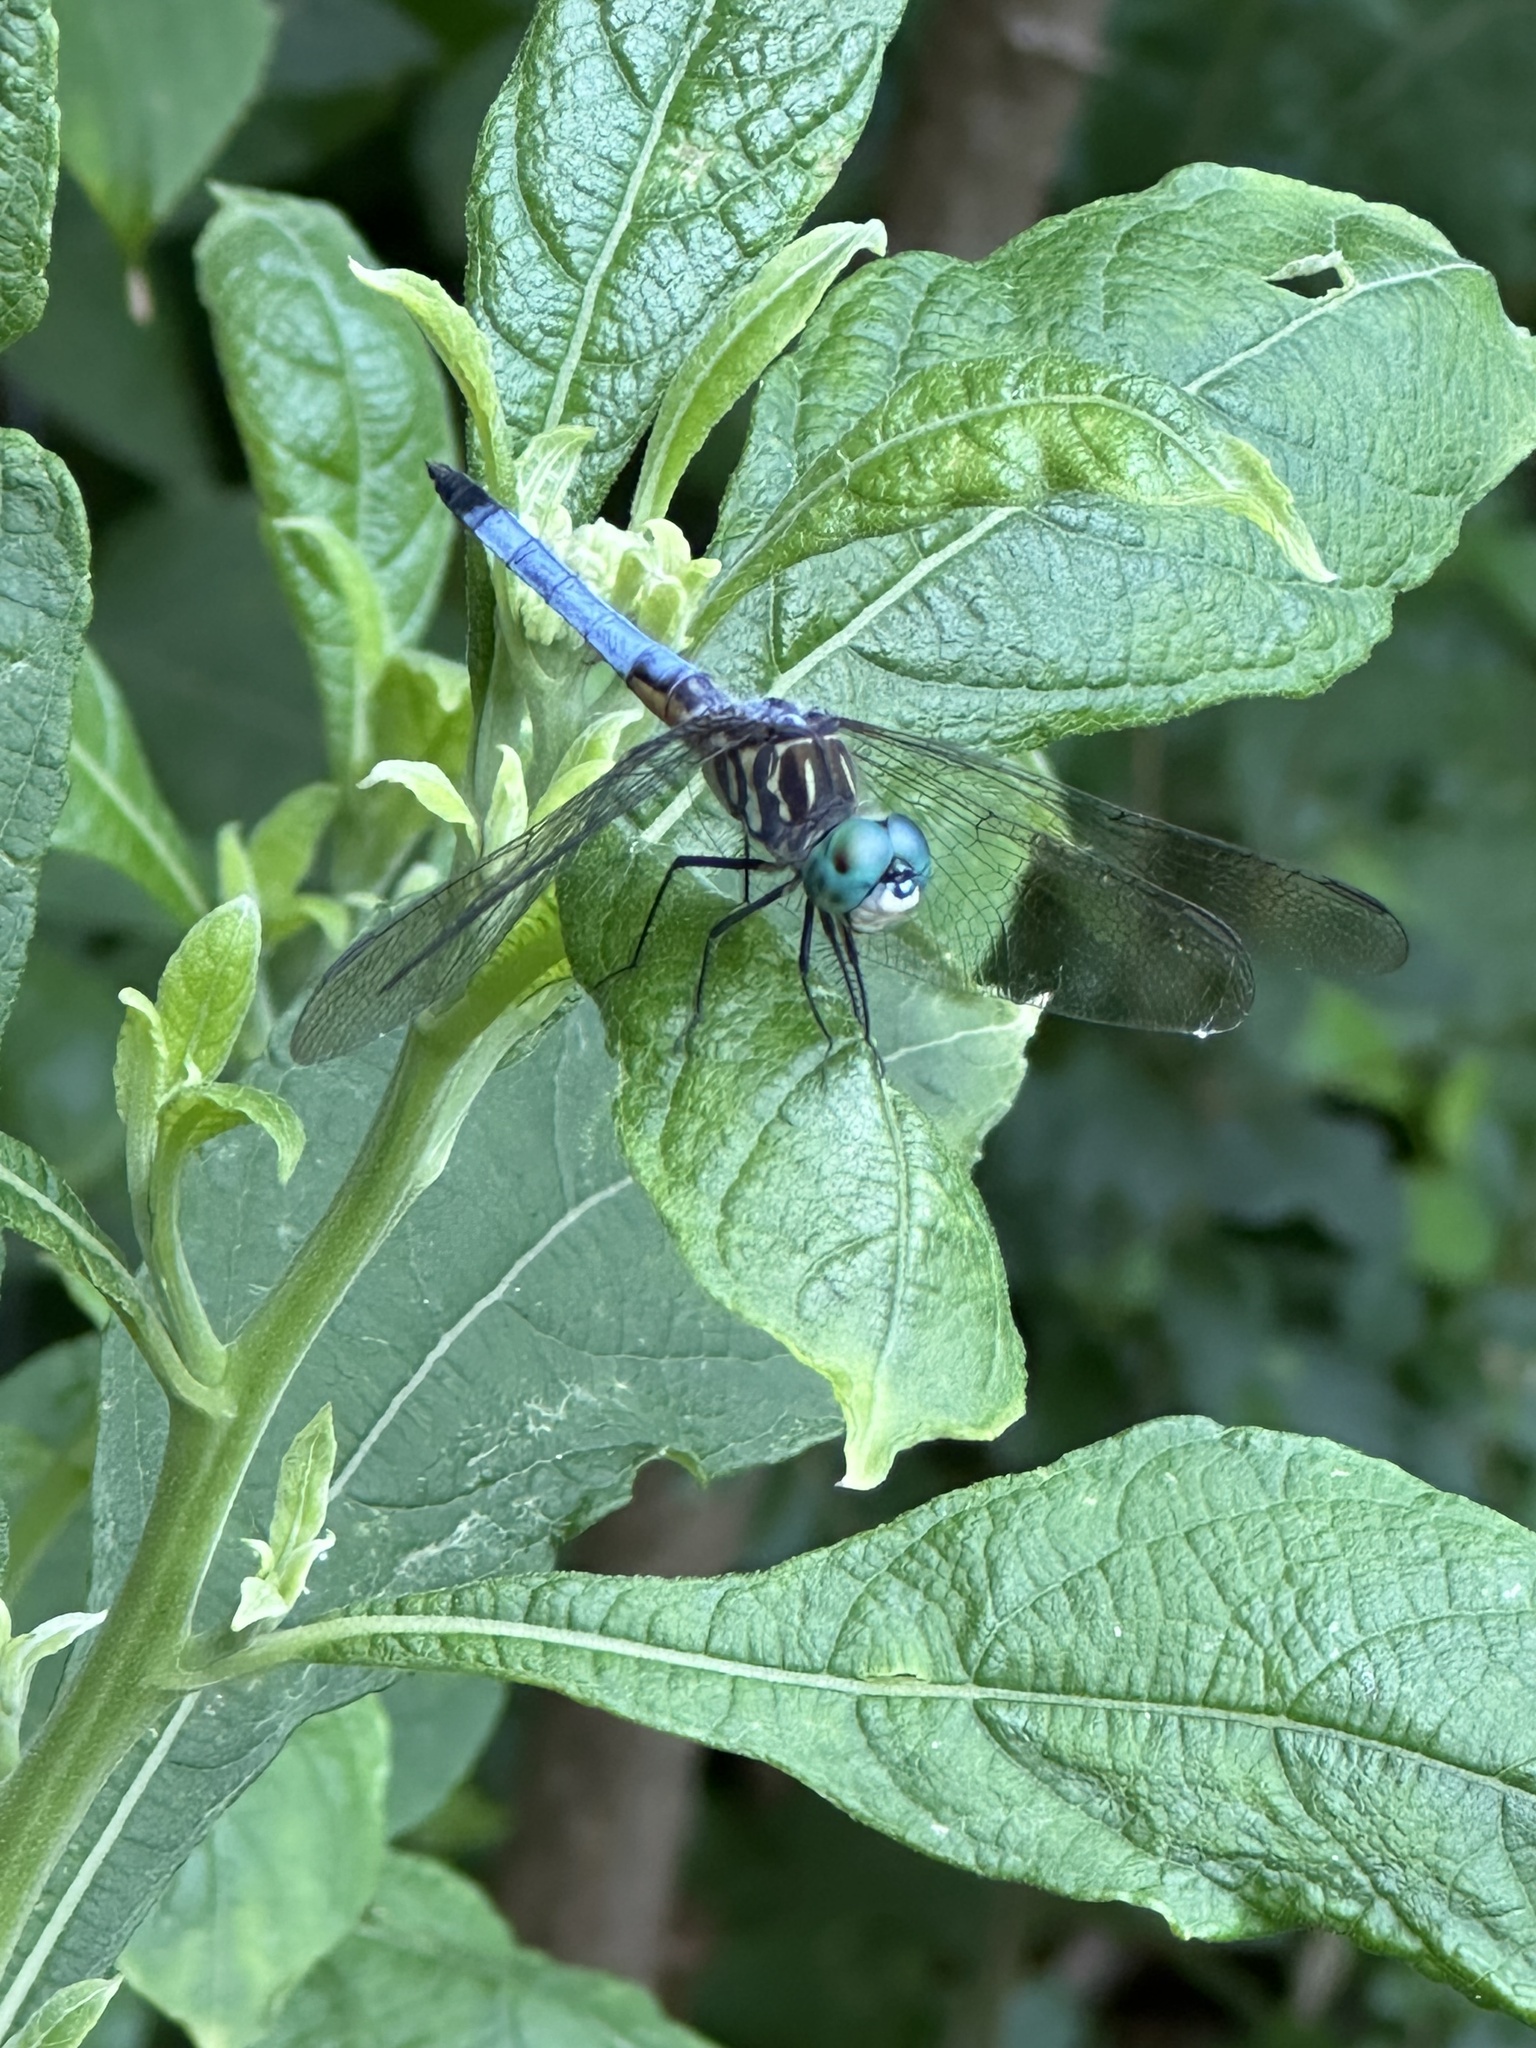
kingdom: Animalia
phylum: Arthropoda
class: Insecta
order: Odonata
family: Libellulidae
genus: Pachydiplax
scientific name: Pachydiplax longipennis
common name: Blue dasher
